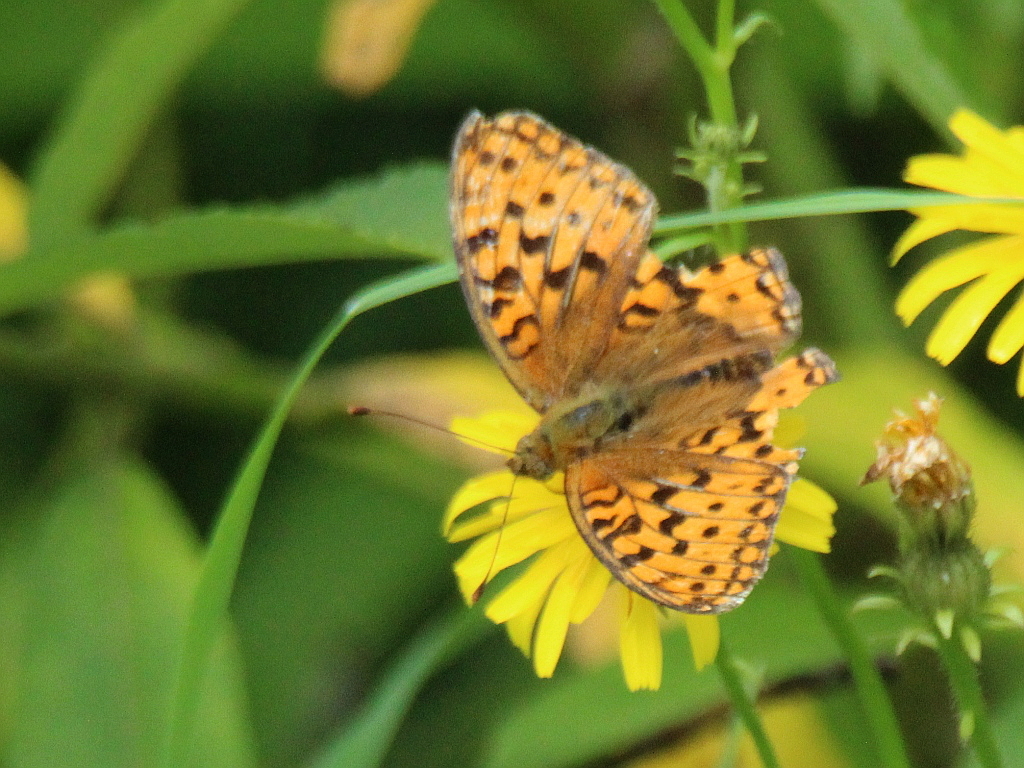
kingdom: Animalia
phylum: Arthropoda
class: Insecta
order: Lepidoptera
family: Nymphalidae
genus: Fabriciana
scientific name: Fabriciana adippe
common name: High brown fritillary
